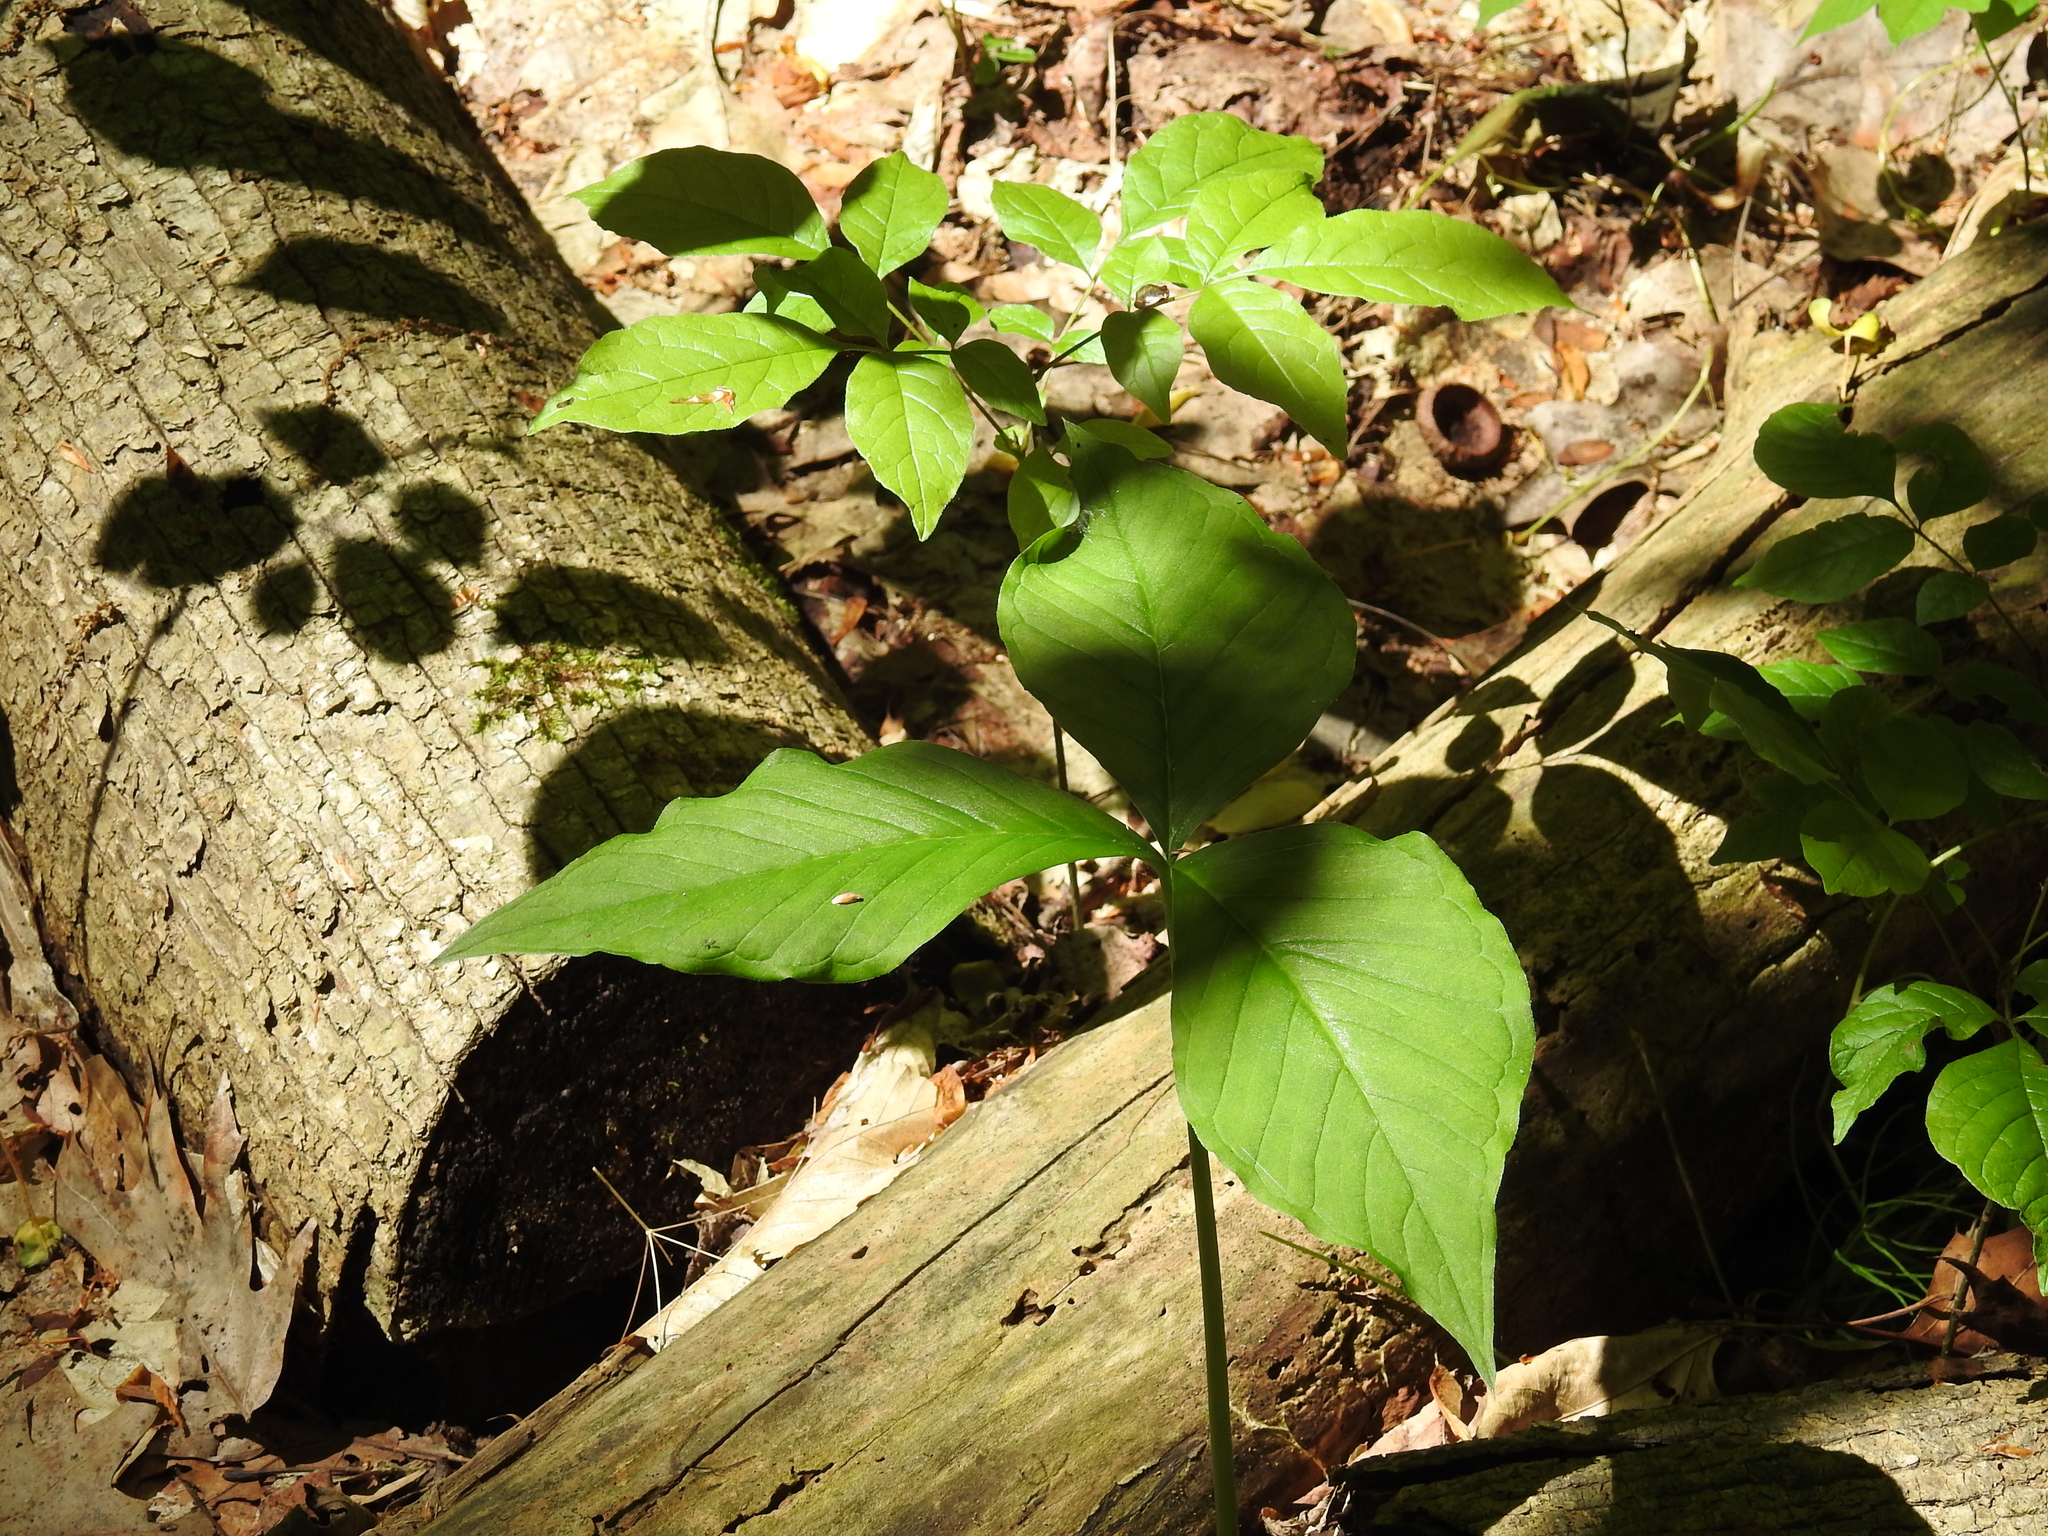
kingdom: Plantae
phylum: Tracheophyta
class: Liliopsida
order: Alismatales
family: Araceae
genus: Arisaema
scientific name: Arisaema triphyllum
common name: Jack-in-the-pulpit
